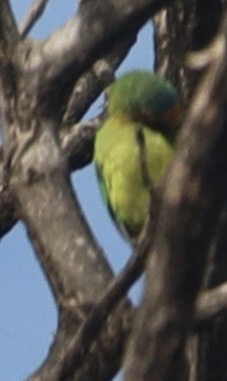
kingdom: Animalia
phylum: Chordata
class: Aves
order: Psittaciformes
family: Psittacidae
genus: Aratinga
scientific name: Aratinga canicularis
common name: Orange-fronted parakeet
